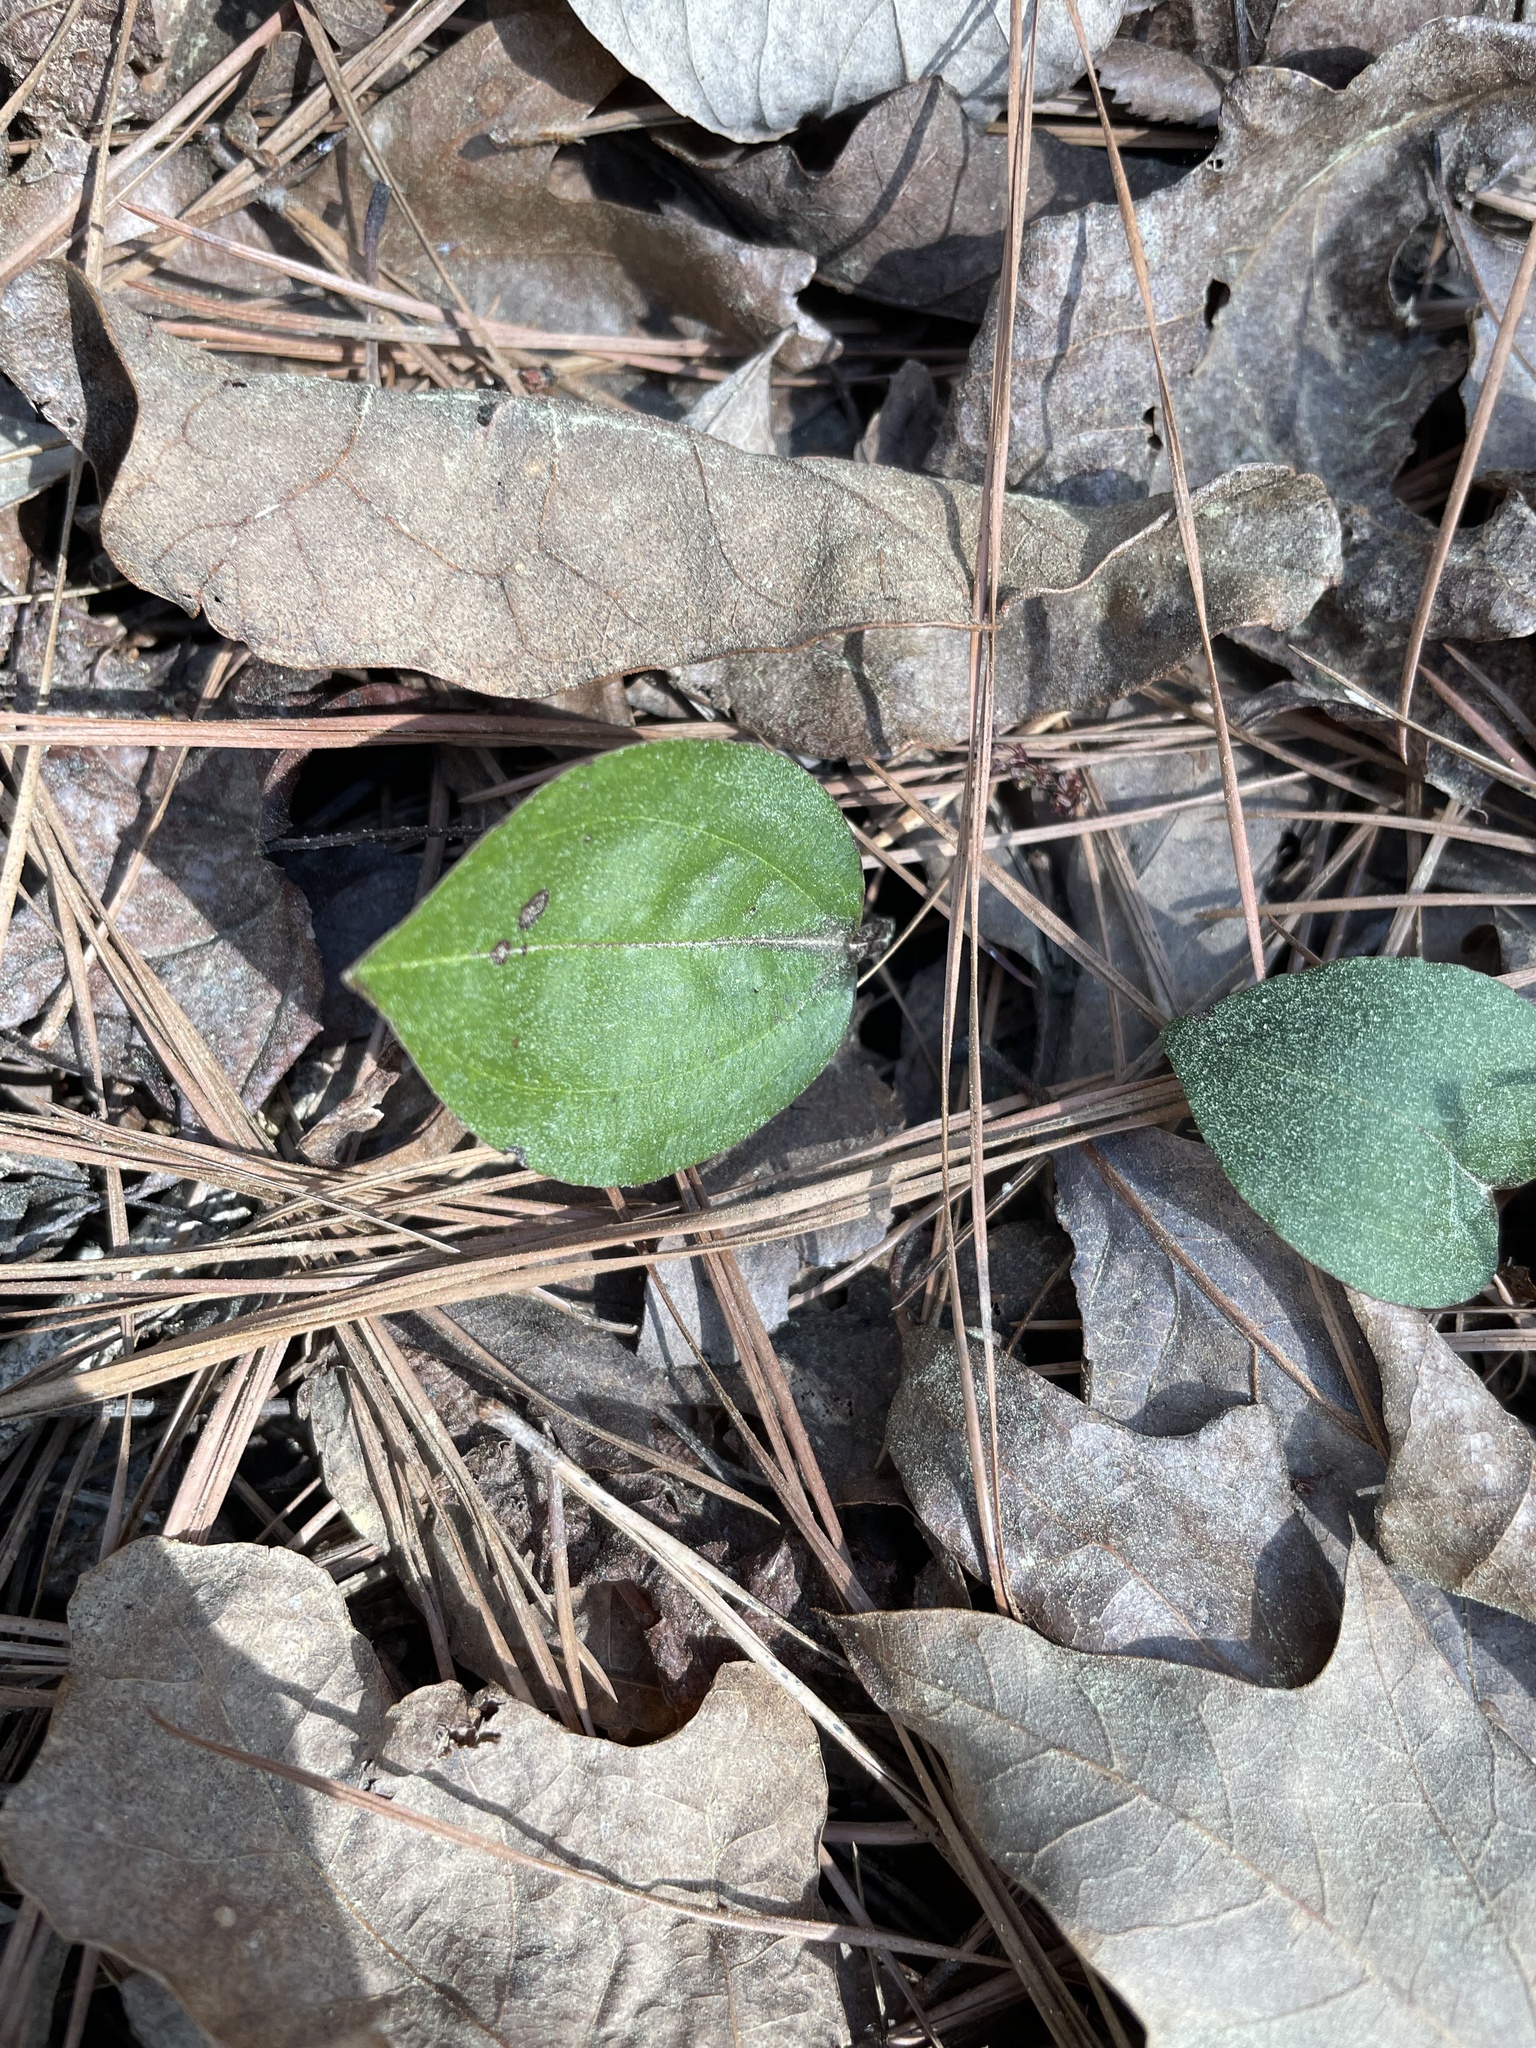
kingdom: Plantae
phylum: Tracheophyta
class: Liliopsida
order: Asparagales
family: Orchidaceae
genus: Tipularia
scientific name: Tipularia discolor
